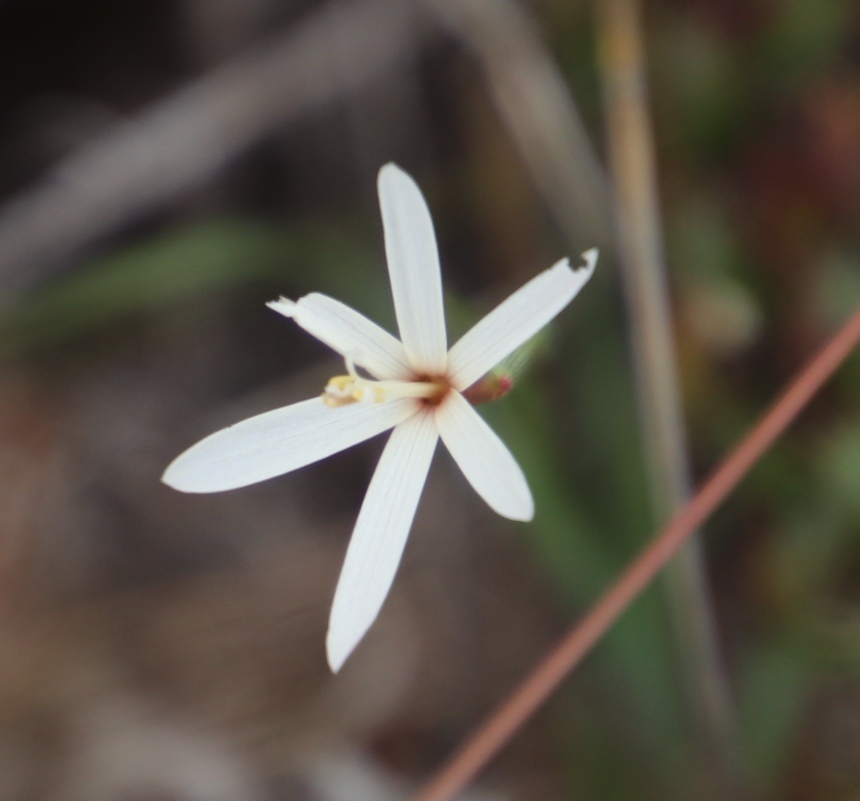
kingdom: Plantae
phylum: Tracheophyta
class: Liliopsida
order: Asparagales
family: Iridaceae
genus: Geissorhiza
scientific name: Geissorhiza tenella
